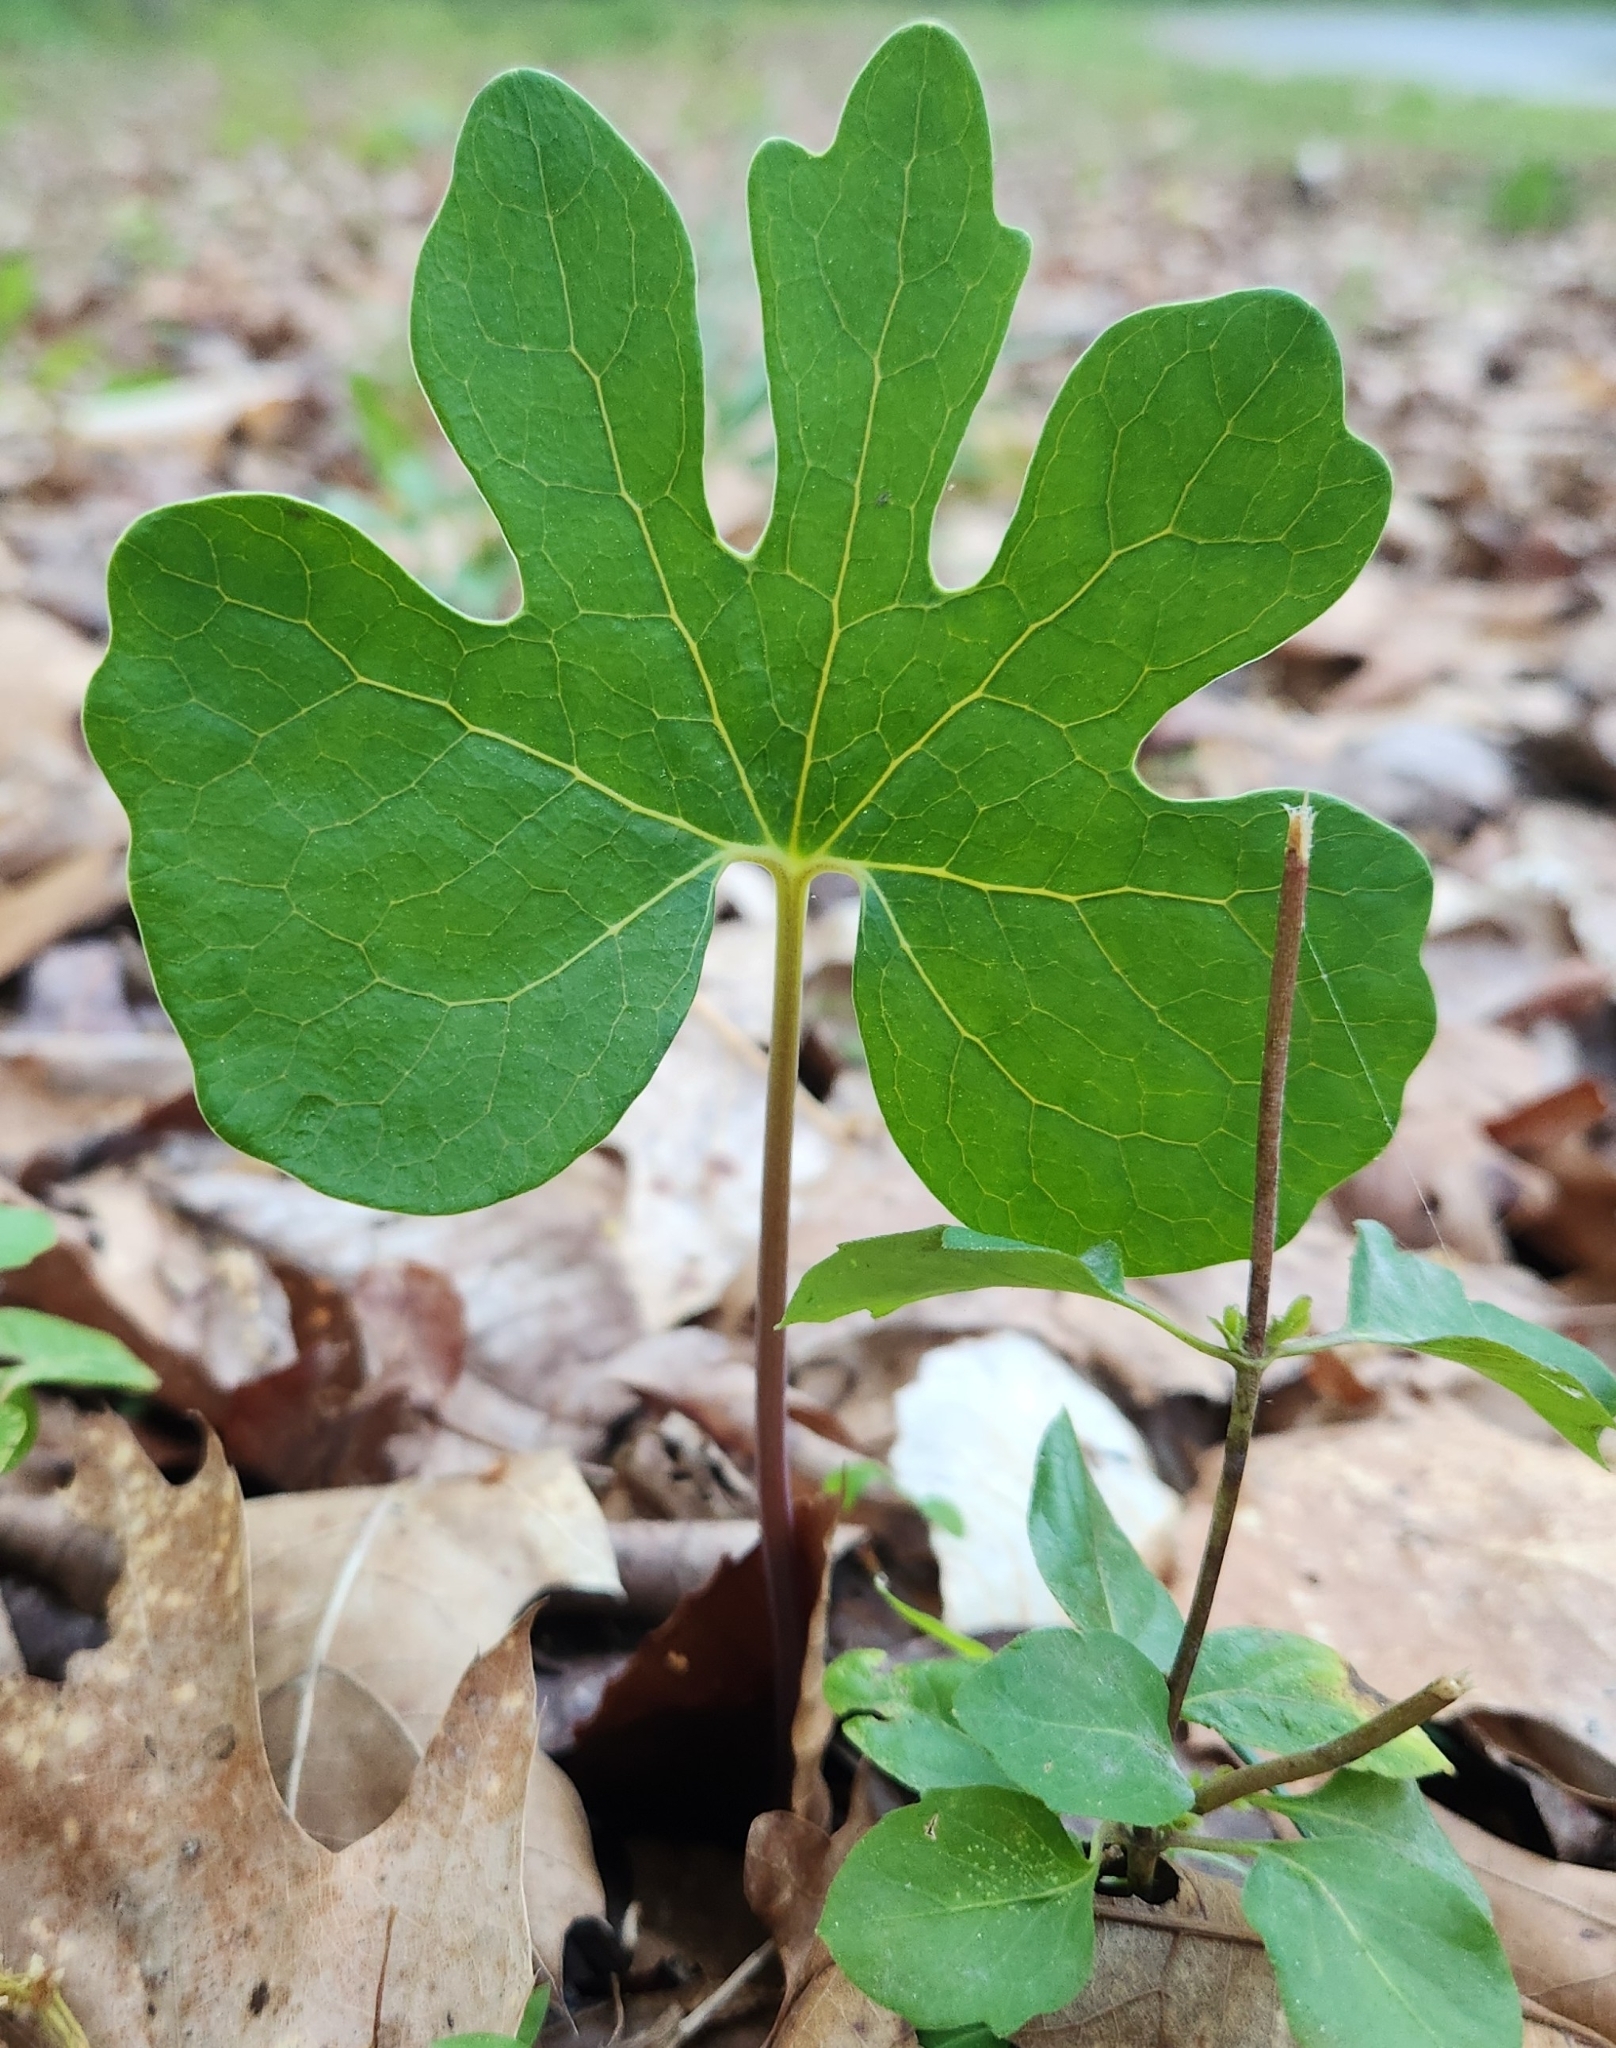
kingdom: Plantae
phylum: Tracheophyta
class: Magnoliopsida
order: Ranunculales
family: Papaveraceae
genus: Sanguinaria
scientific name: Sanguinaria canadensis
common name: Bloodroot
